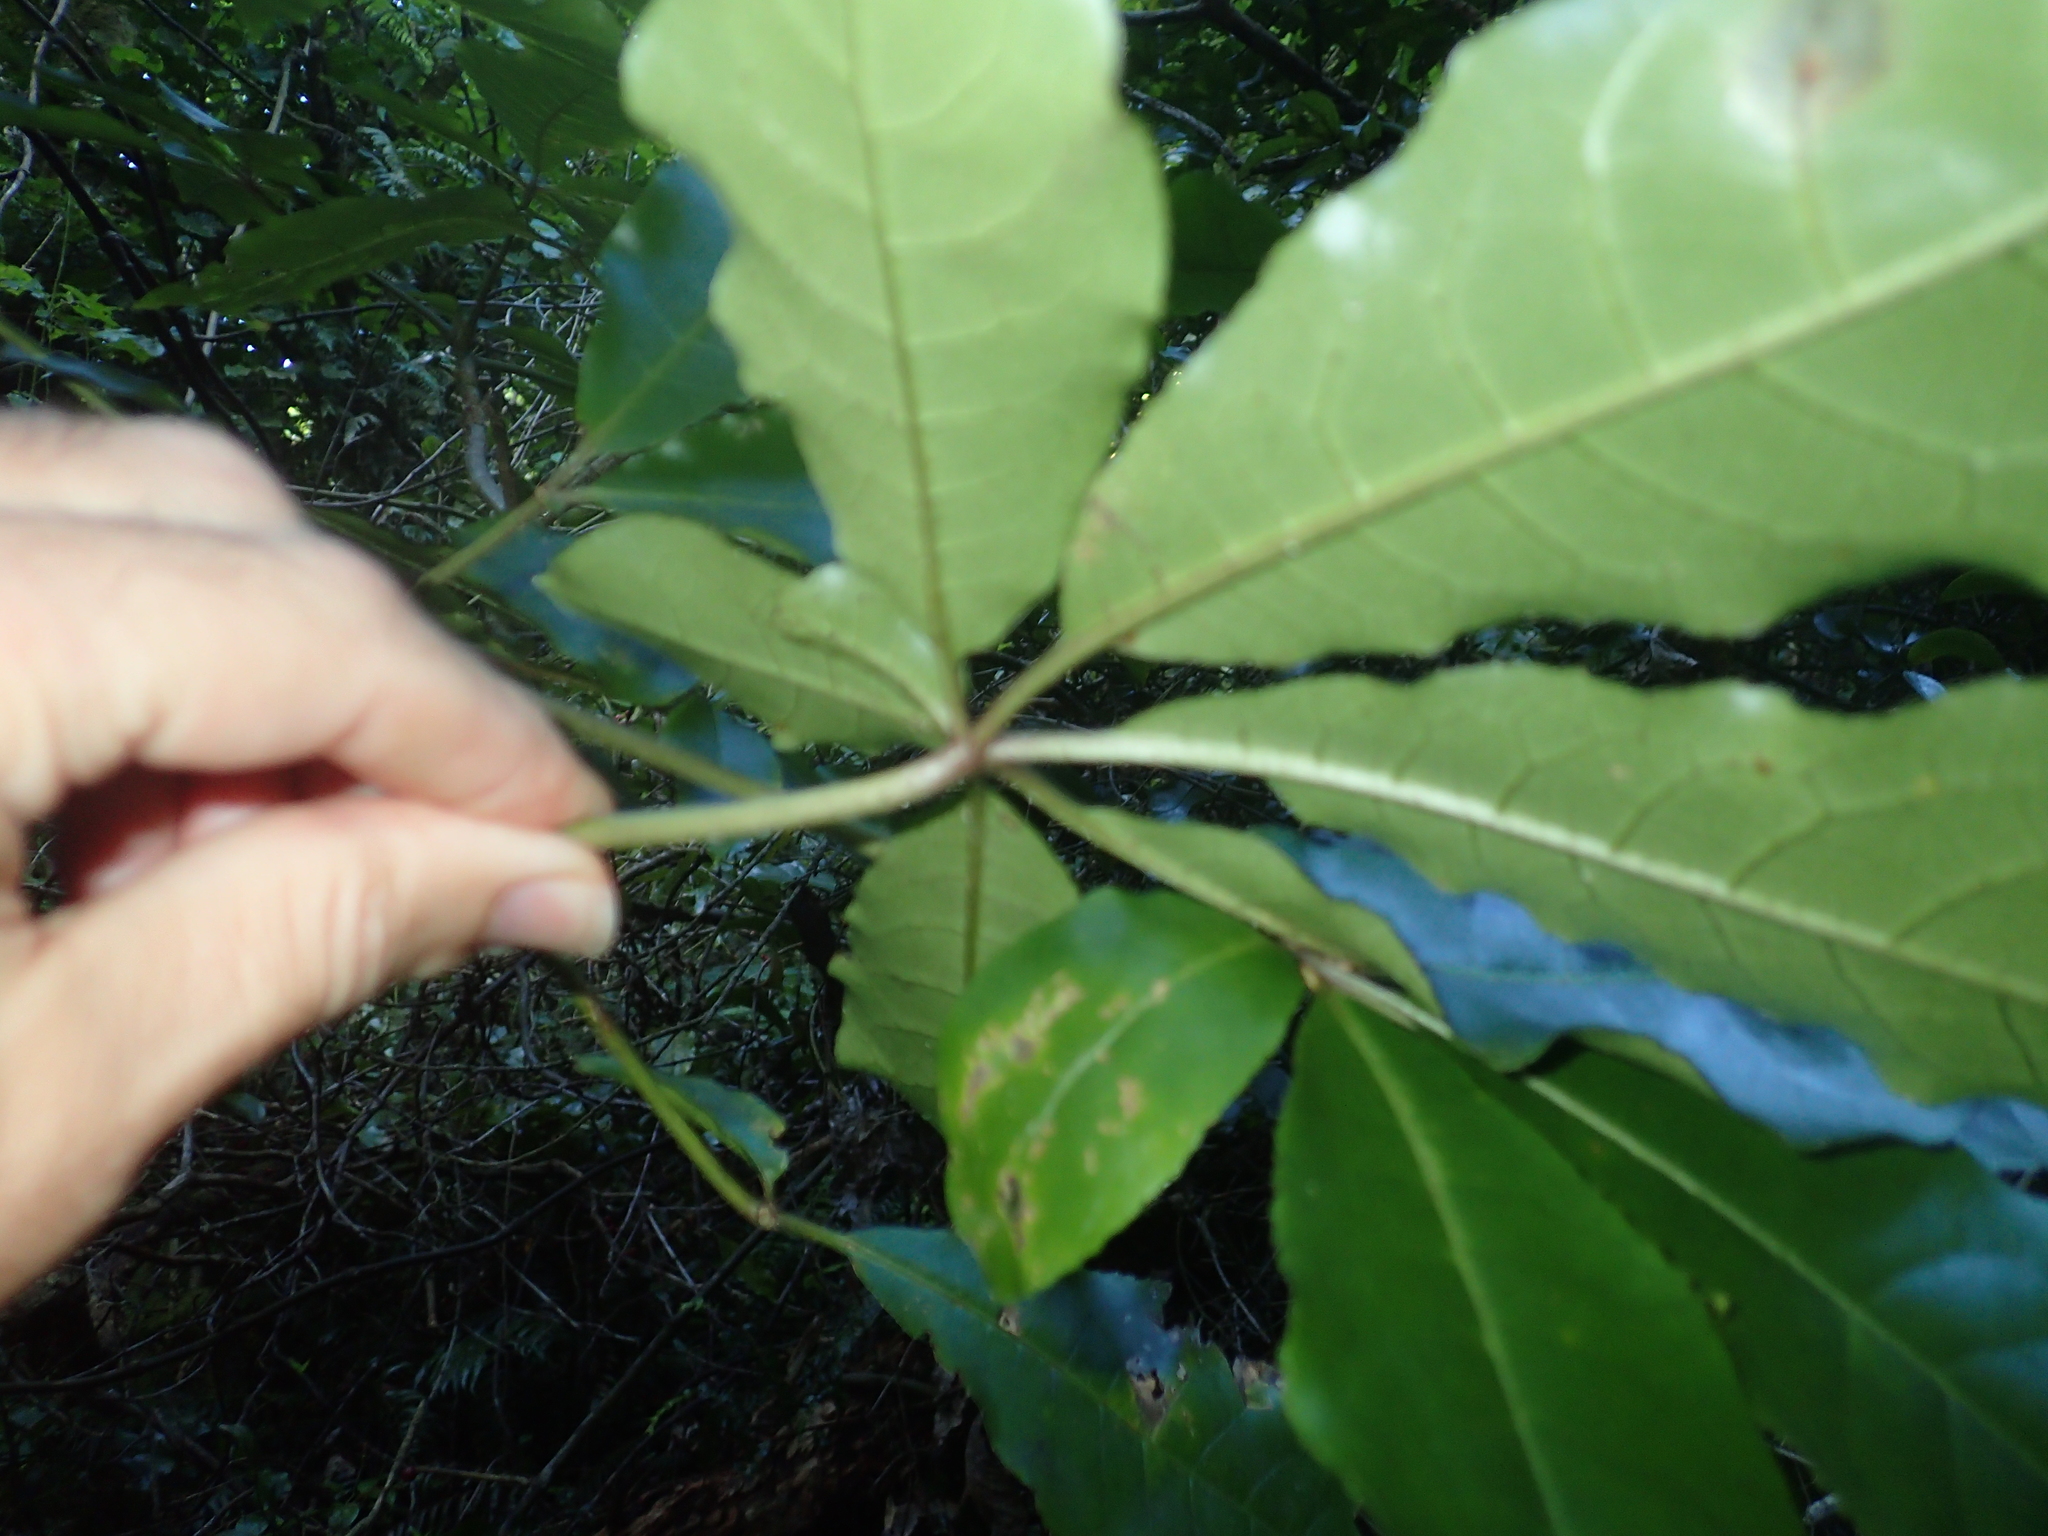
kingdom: Plantae
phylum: Tracheophyta
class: Magnoliopsida
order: Apiales
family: Araliaceae
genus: Schefflera
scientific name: Schefflera digitata
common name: Pate
